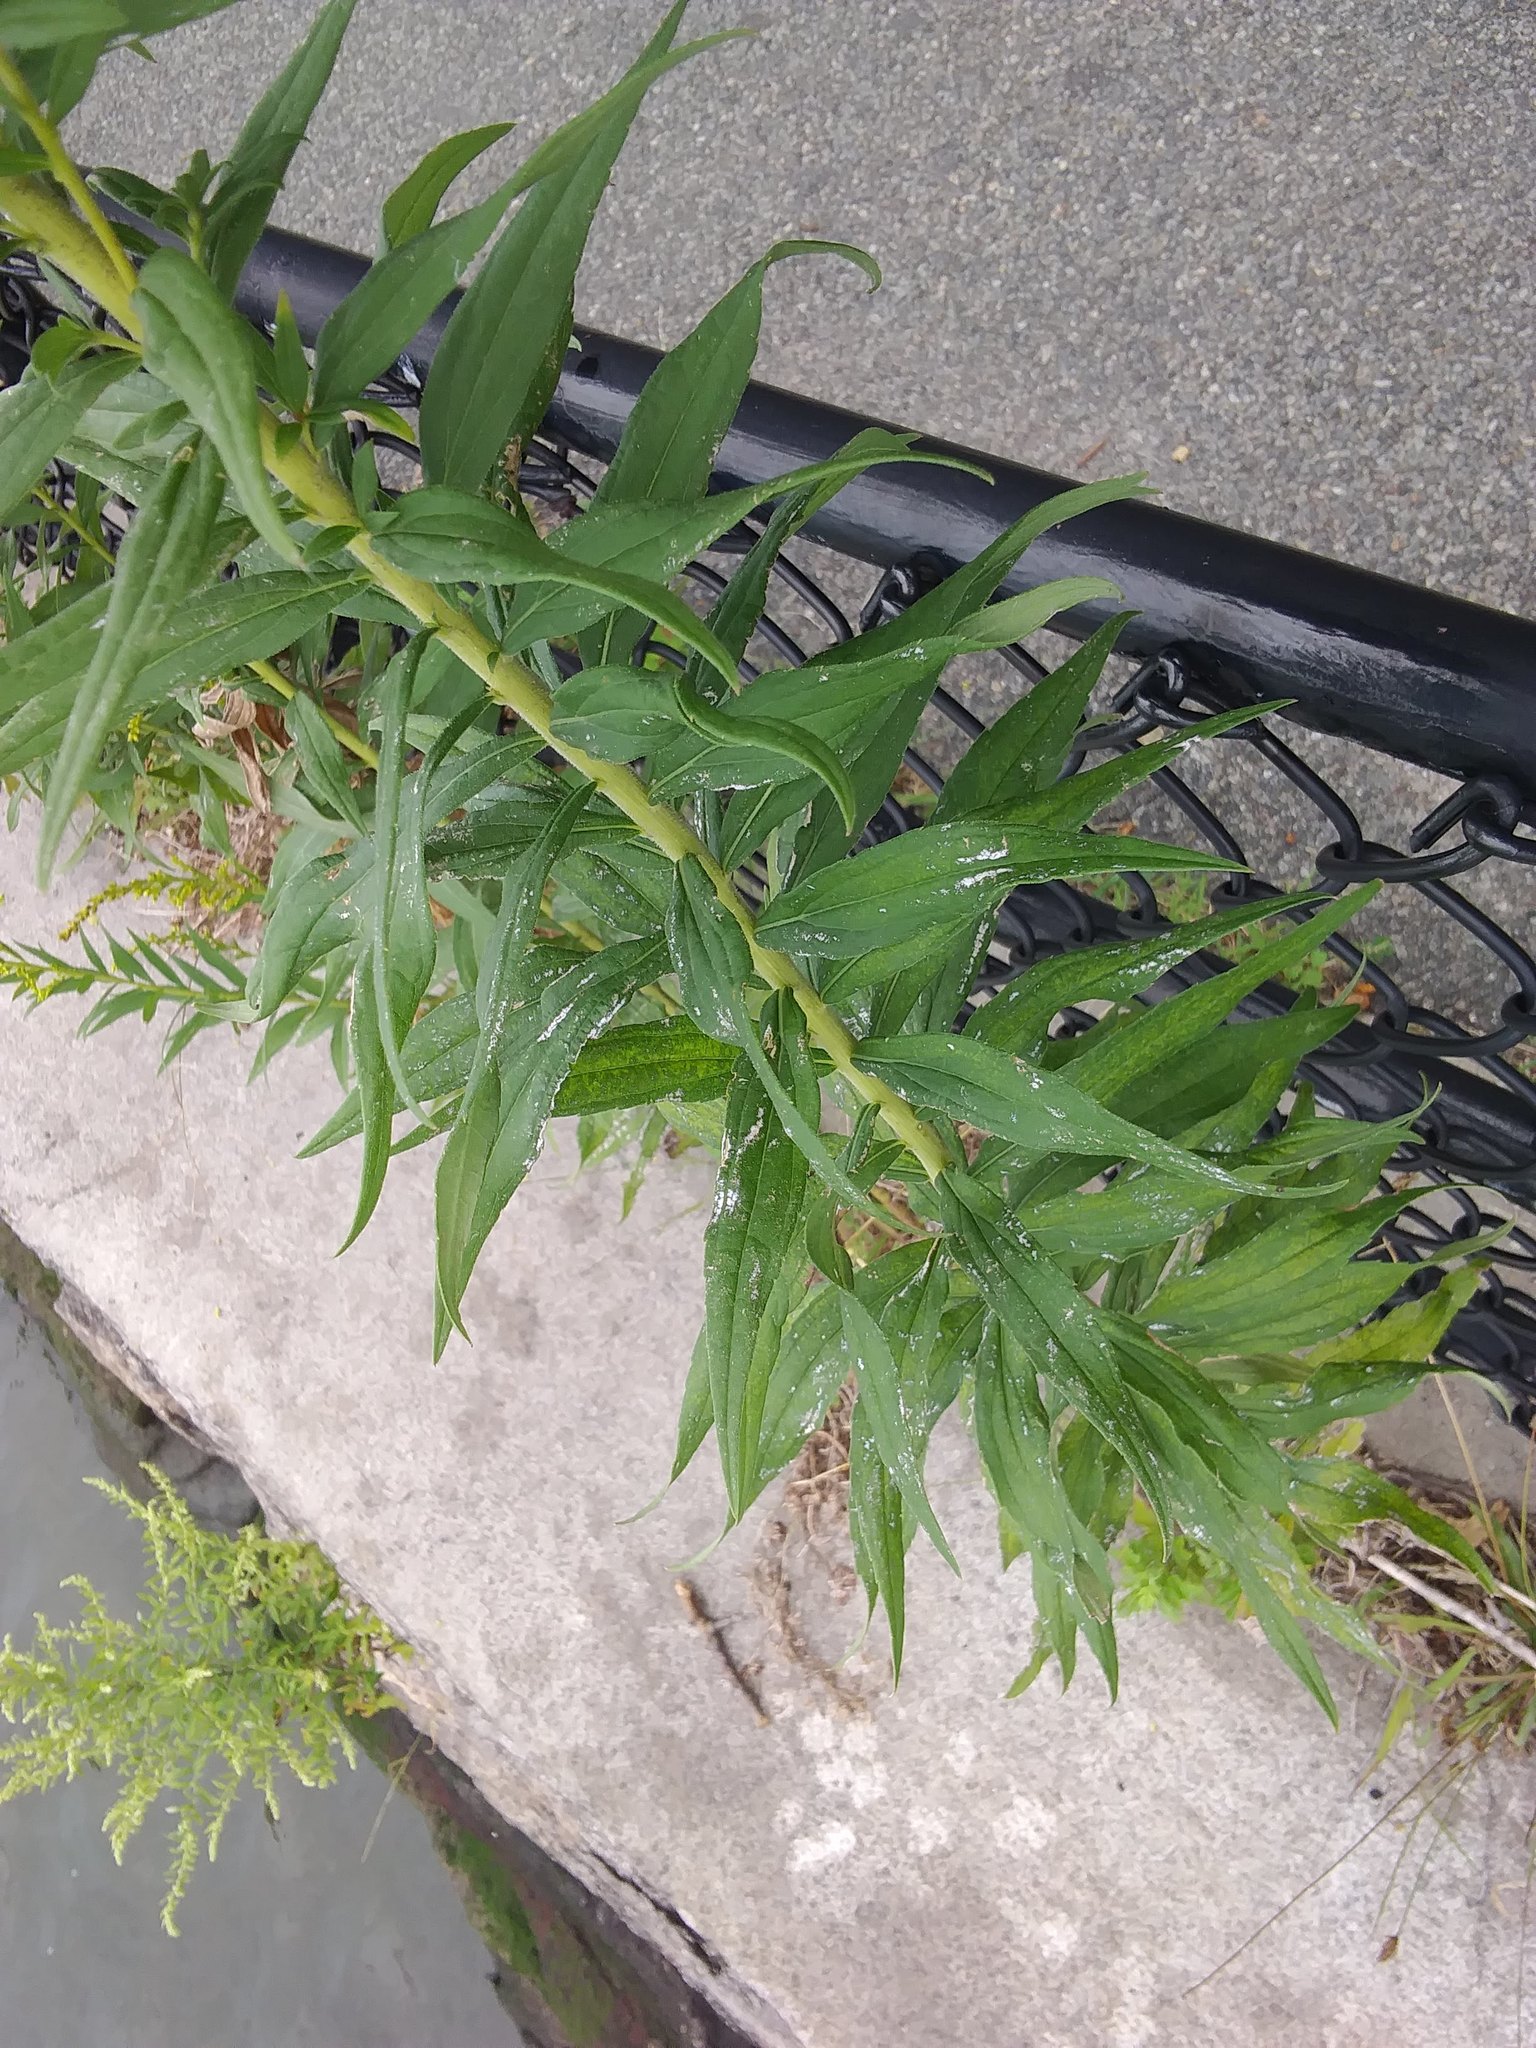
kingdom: Plantae
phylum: Tracheophyta
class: Magnoliopsida
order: Asterales
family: Asteraceae
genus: Solidago
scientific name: Solidago sempervirens
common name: Salt-marsh goldenrod
